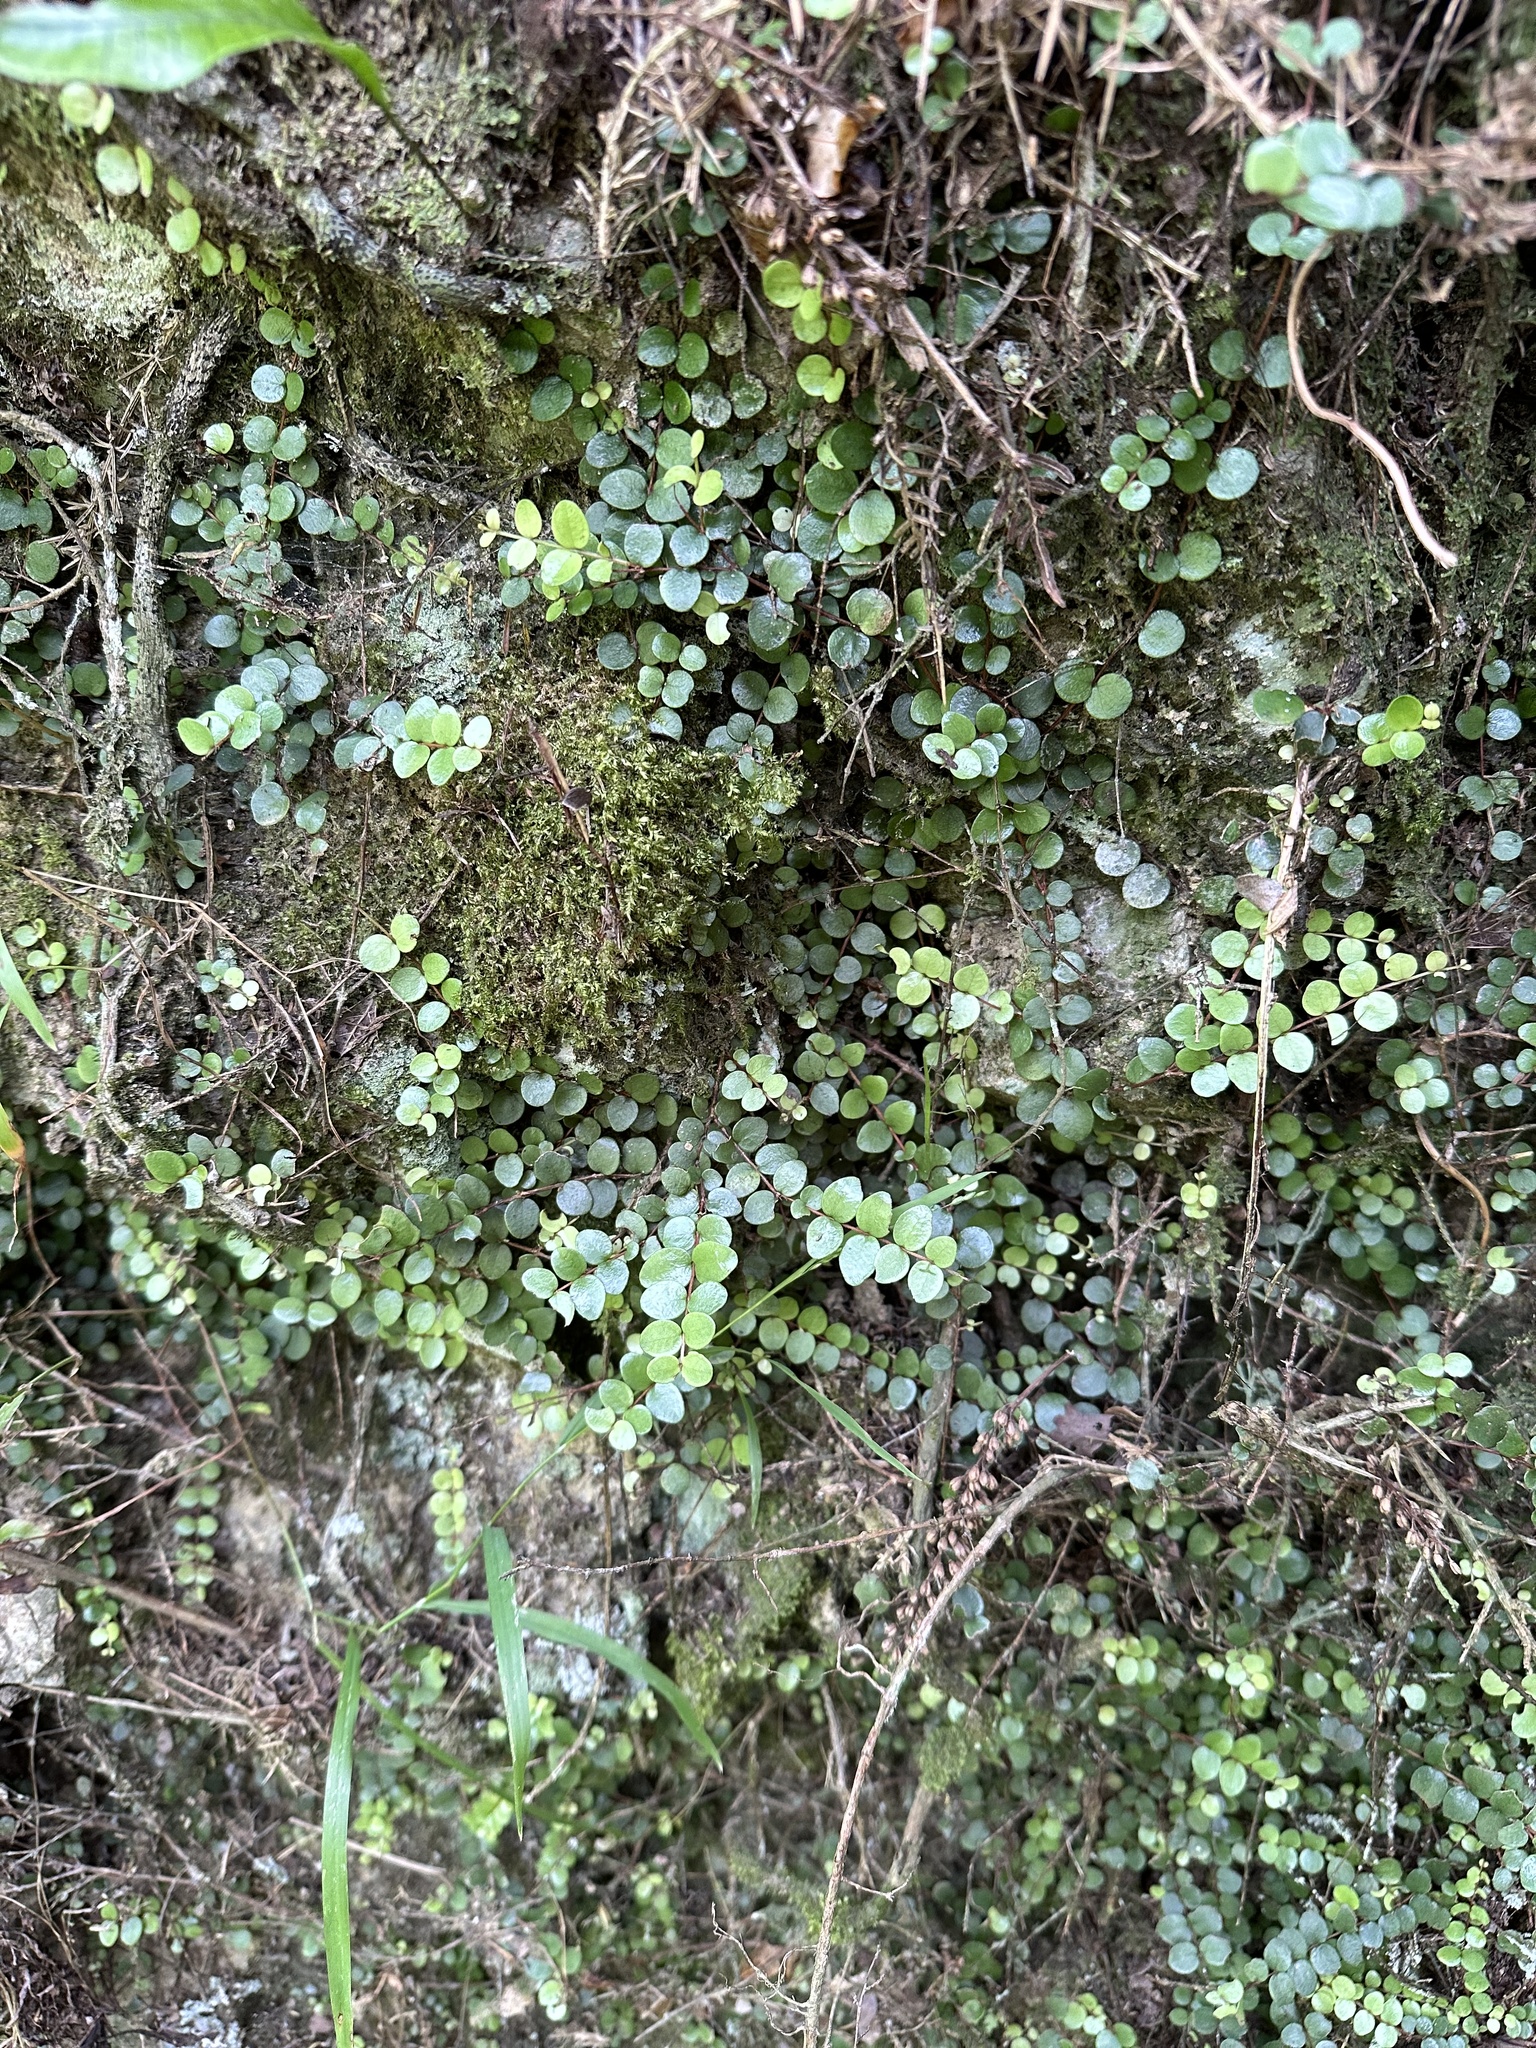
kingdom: Plantae
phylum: Tracheophyta
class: Magnoliopsida
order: Myrtales
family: Myrtaceae
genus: Metrosideros
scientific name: Metrosideros perforata
